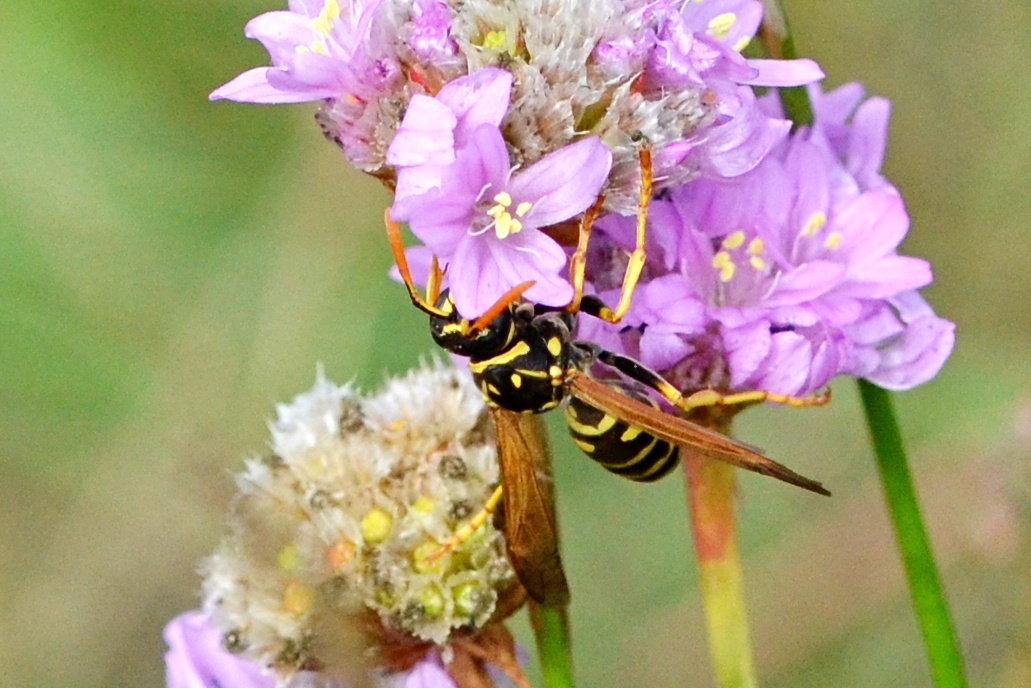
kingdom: Animalia
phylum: Arthropoda
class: Insecta
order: Hymenoptera
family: Eumenidae
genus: Polistes
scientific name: Polistes dominula
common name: Paper wasp
